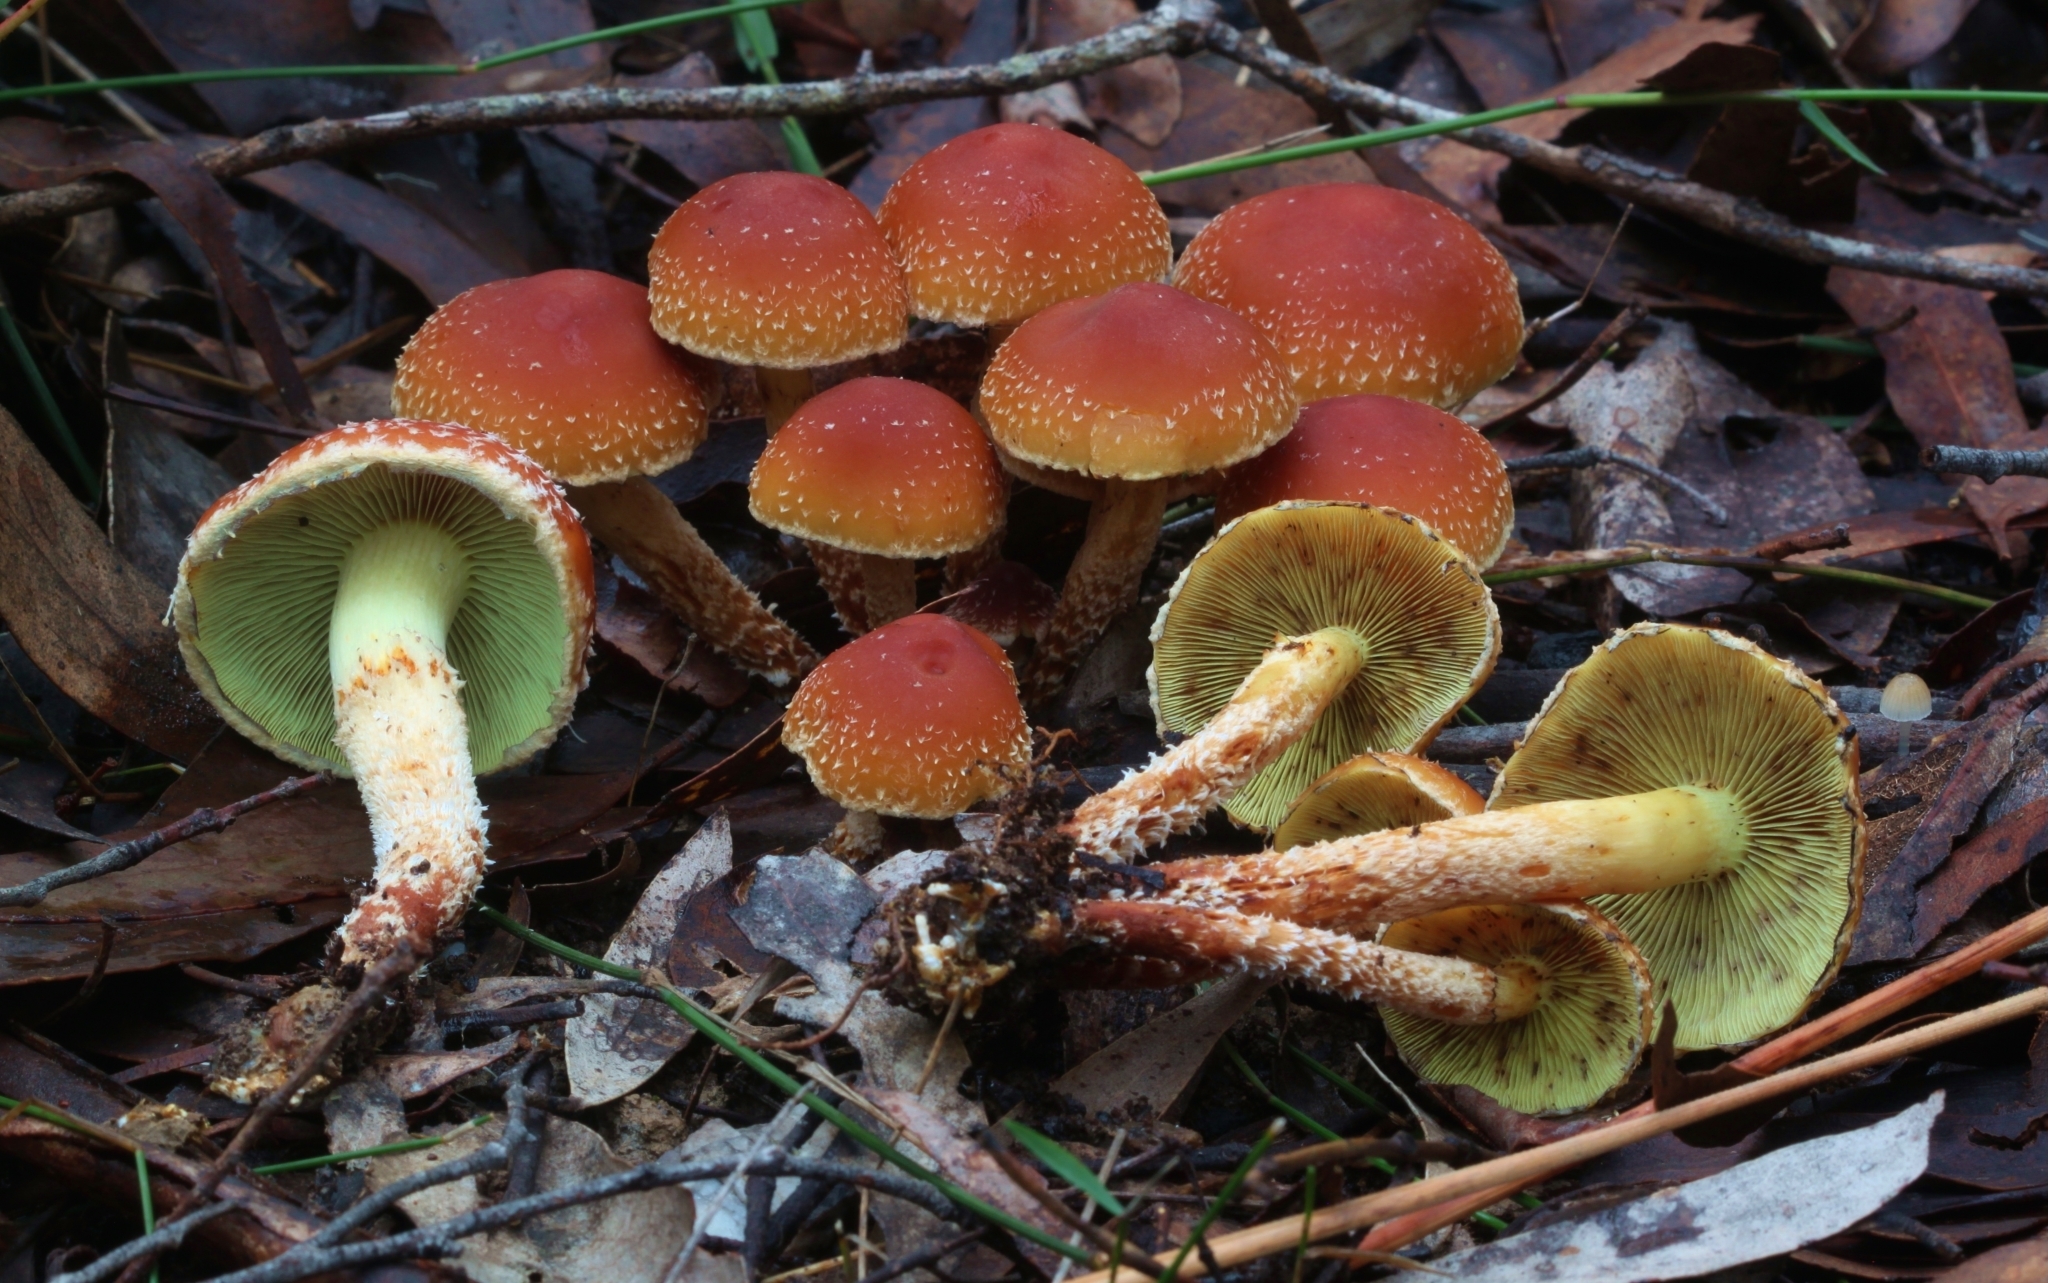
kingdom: Fungi
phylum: Basidiomycota
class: Agaricomycetes
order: Agaricales
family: Strophariaceae
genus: Hypholoma
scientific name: Hypholoma australianum
